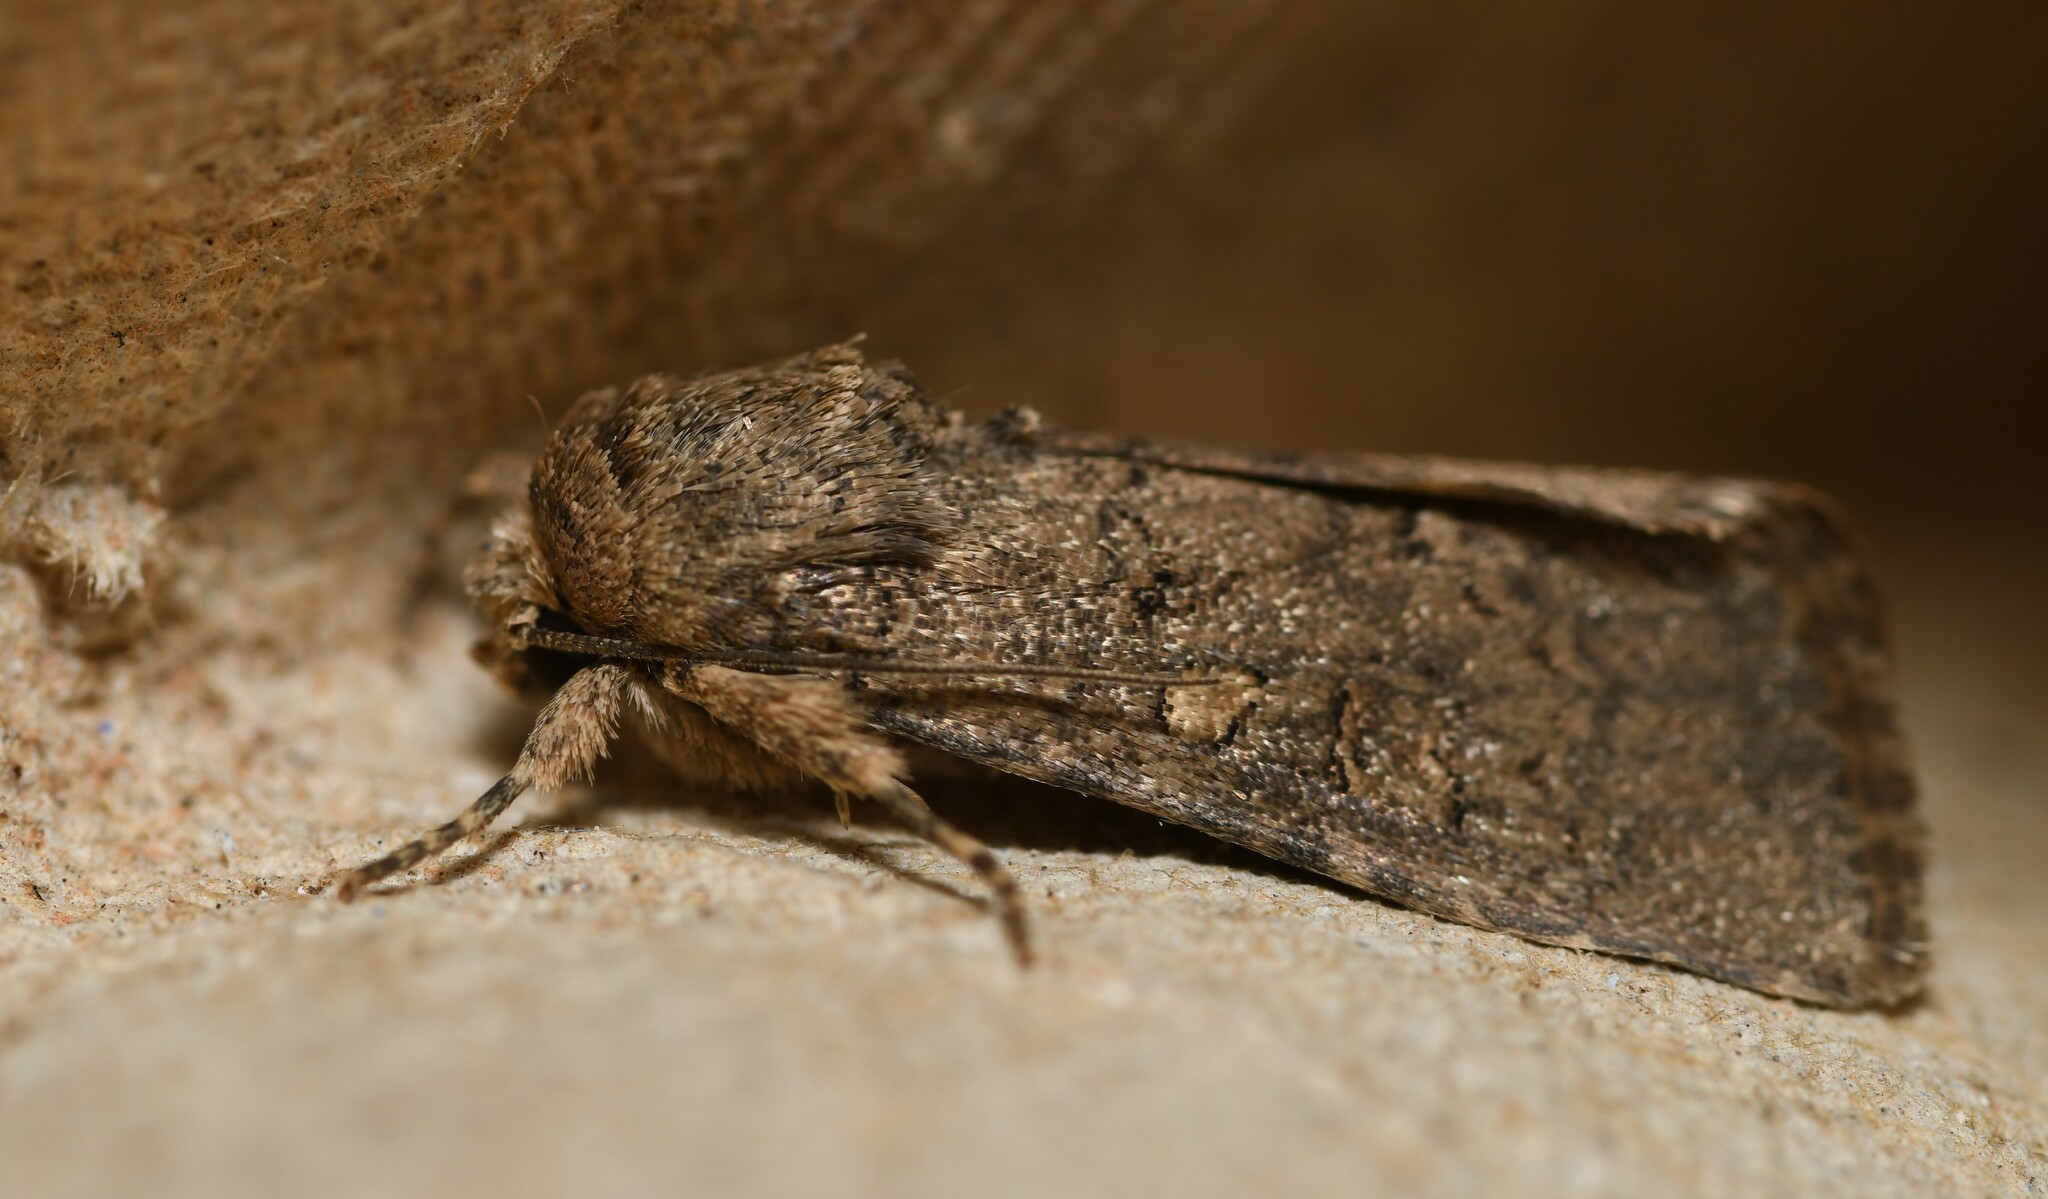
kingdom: Animalia
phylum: Arthropoda
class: Insecta
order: Lepidoptera
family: Noctuidae
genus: Spodoptera
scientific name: Spodoptera cilium
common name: Dark mottled willow
